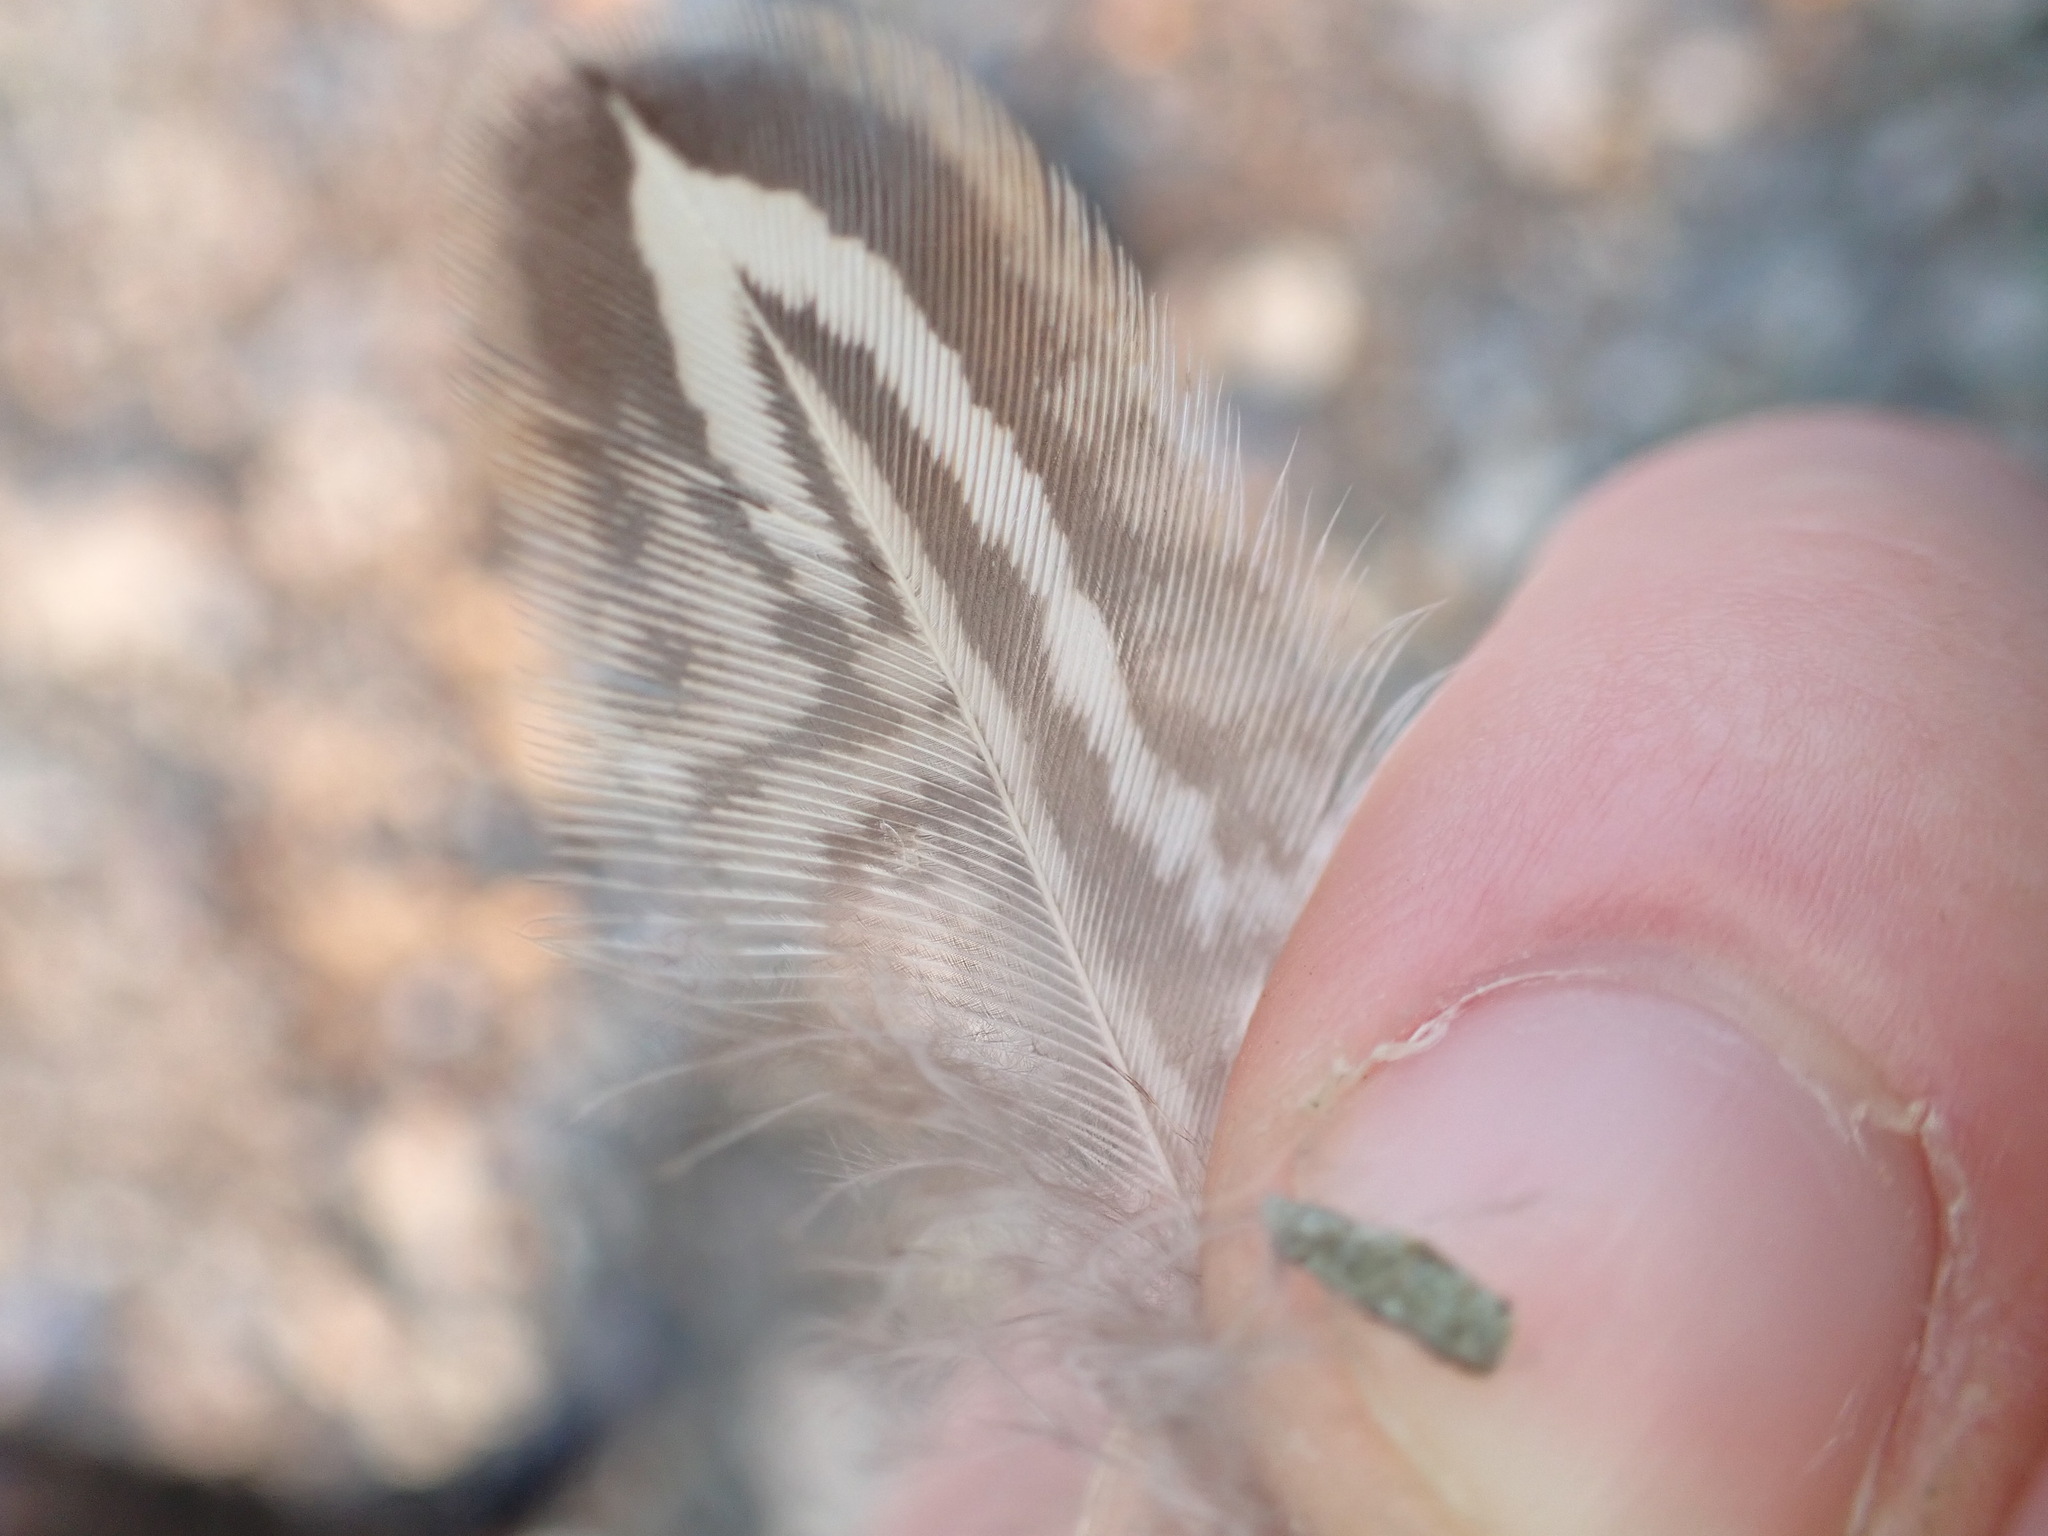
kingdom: Animalia
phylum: Chordata
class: Aves
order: Galliformes
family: Phasianidae
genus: Phasianus
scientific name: Phasianus colchicus
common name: Common pheasant
